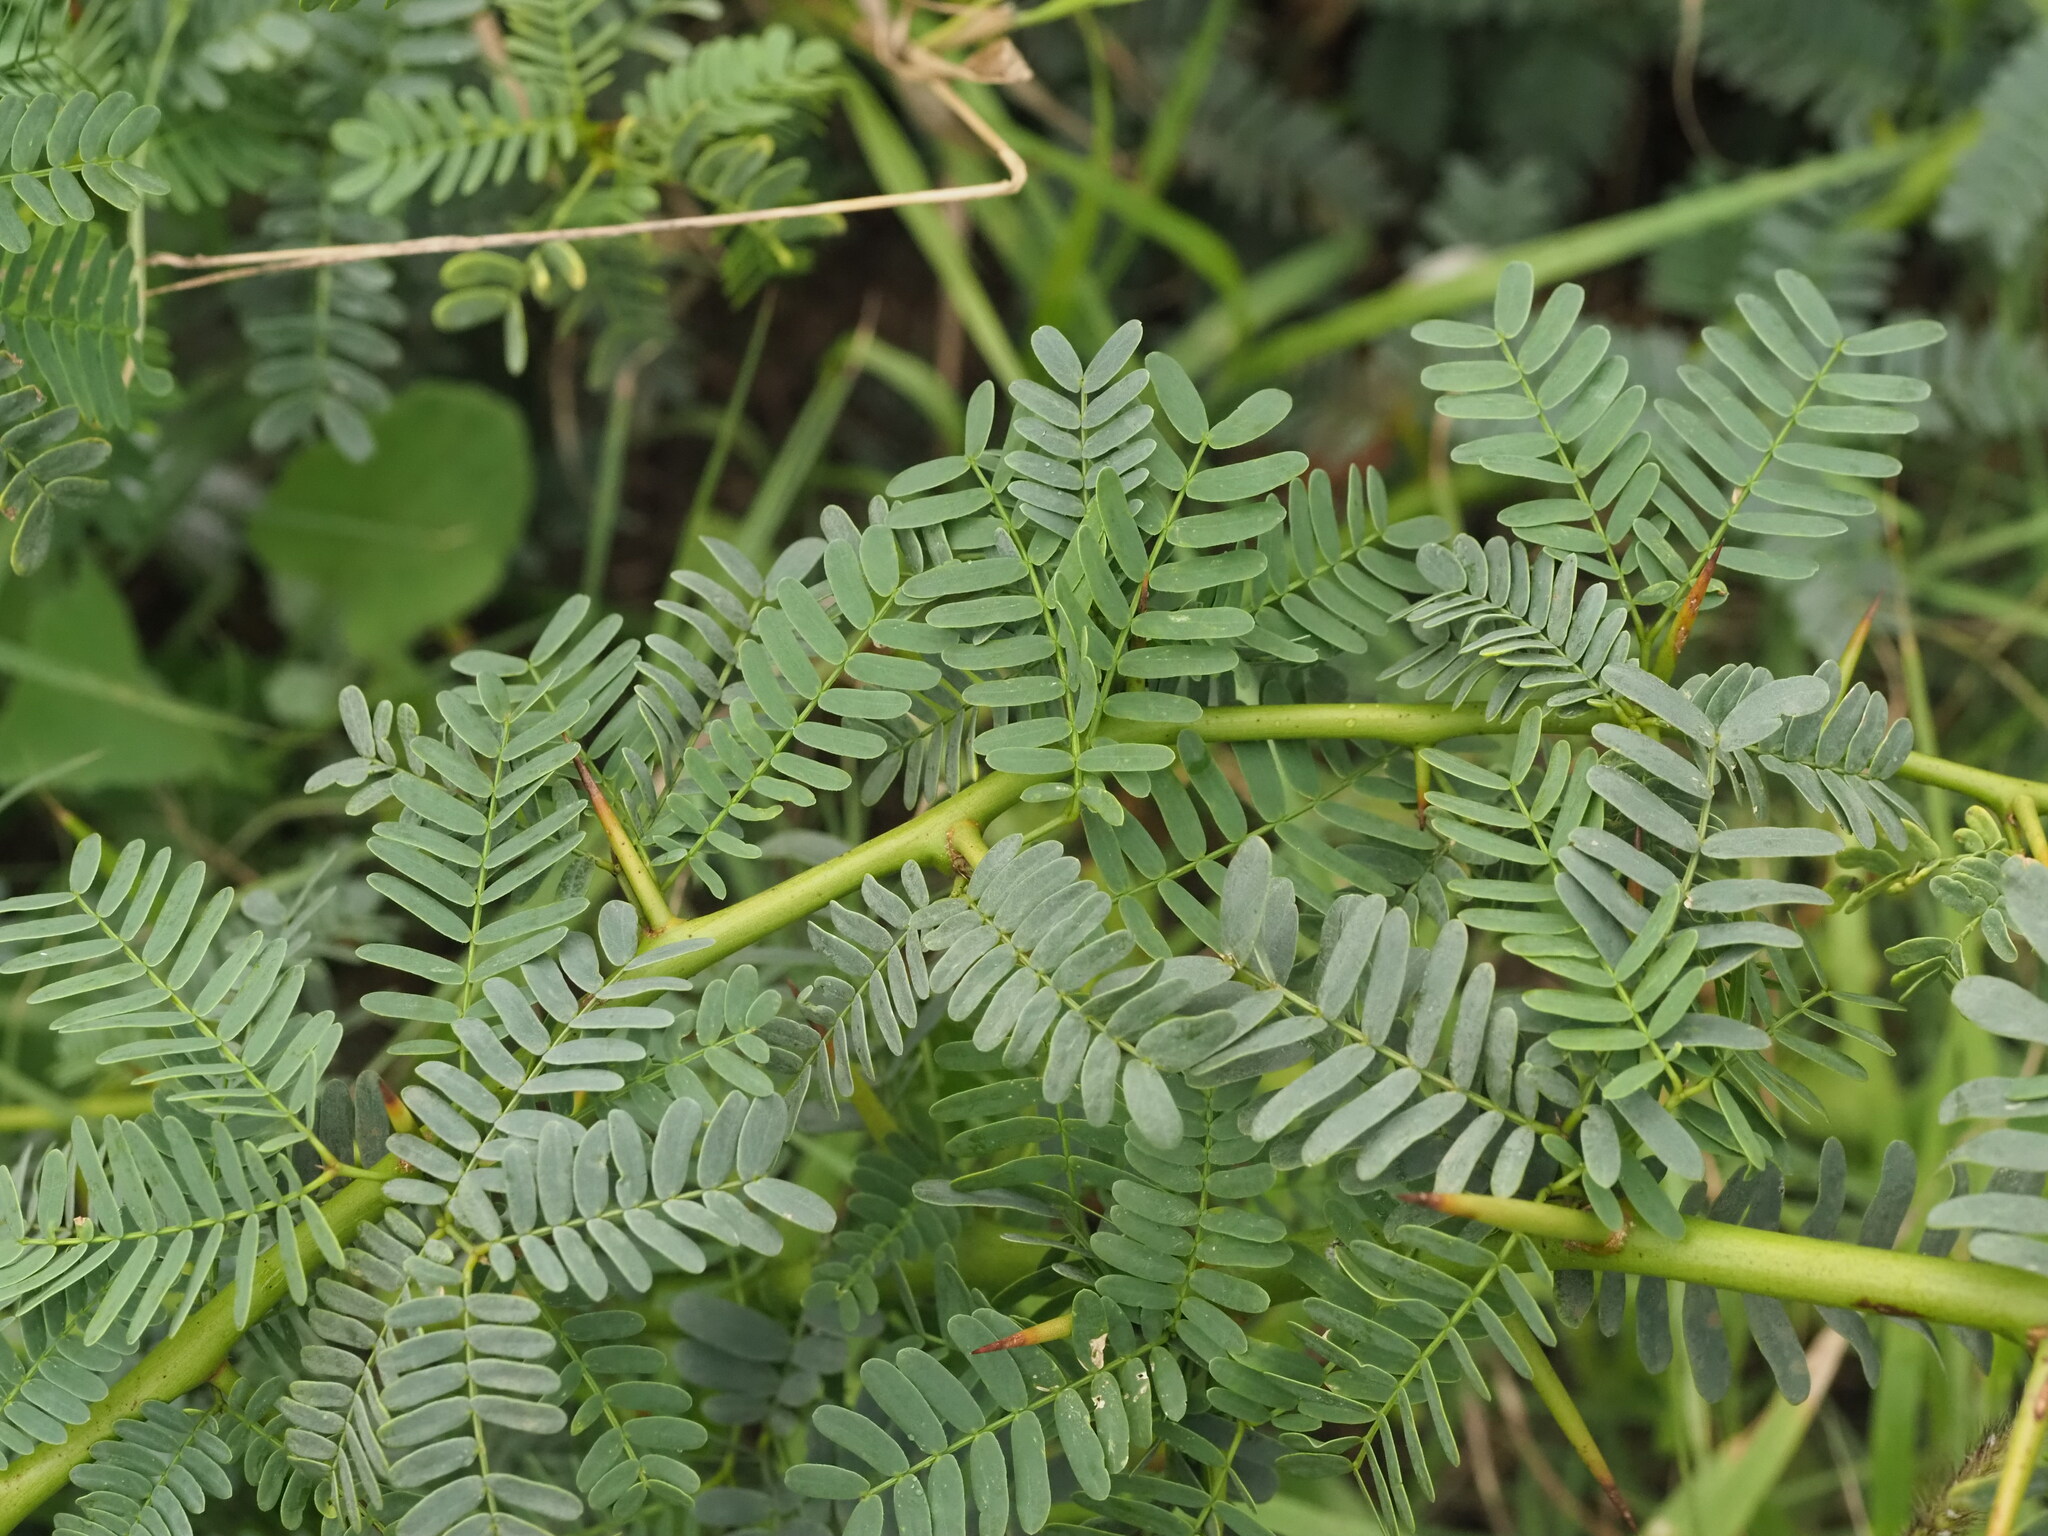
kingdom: Plantae
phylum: Tracheophyta
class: Magnoliopsida
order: Fabales
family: Fabaceae
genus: Prosopis
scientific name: Prosopis juliflora
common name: Mesquite
